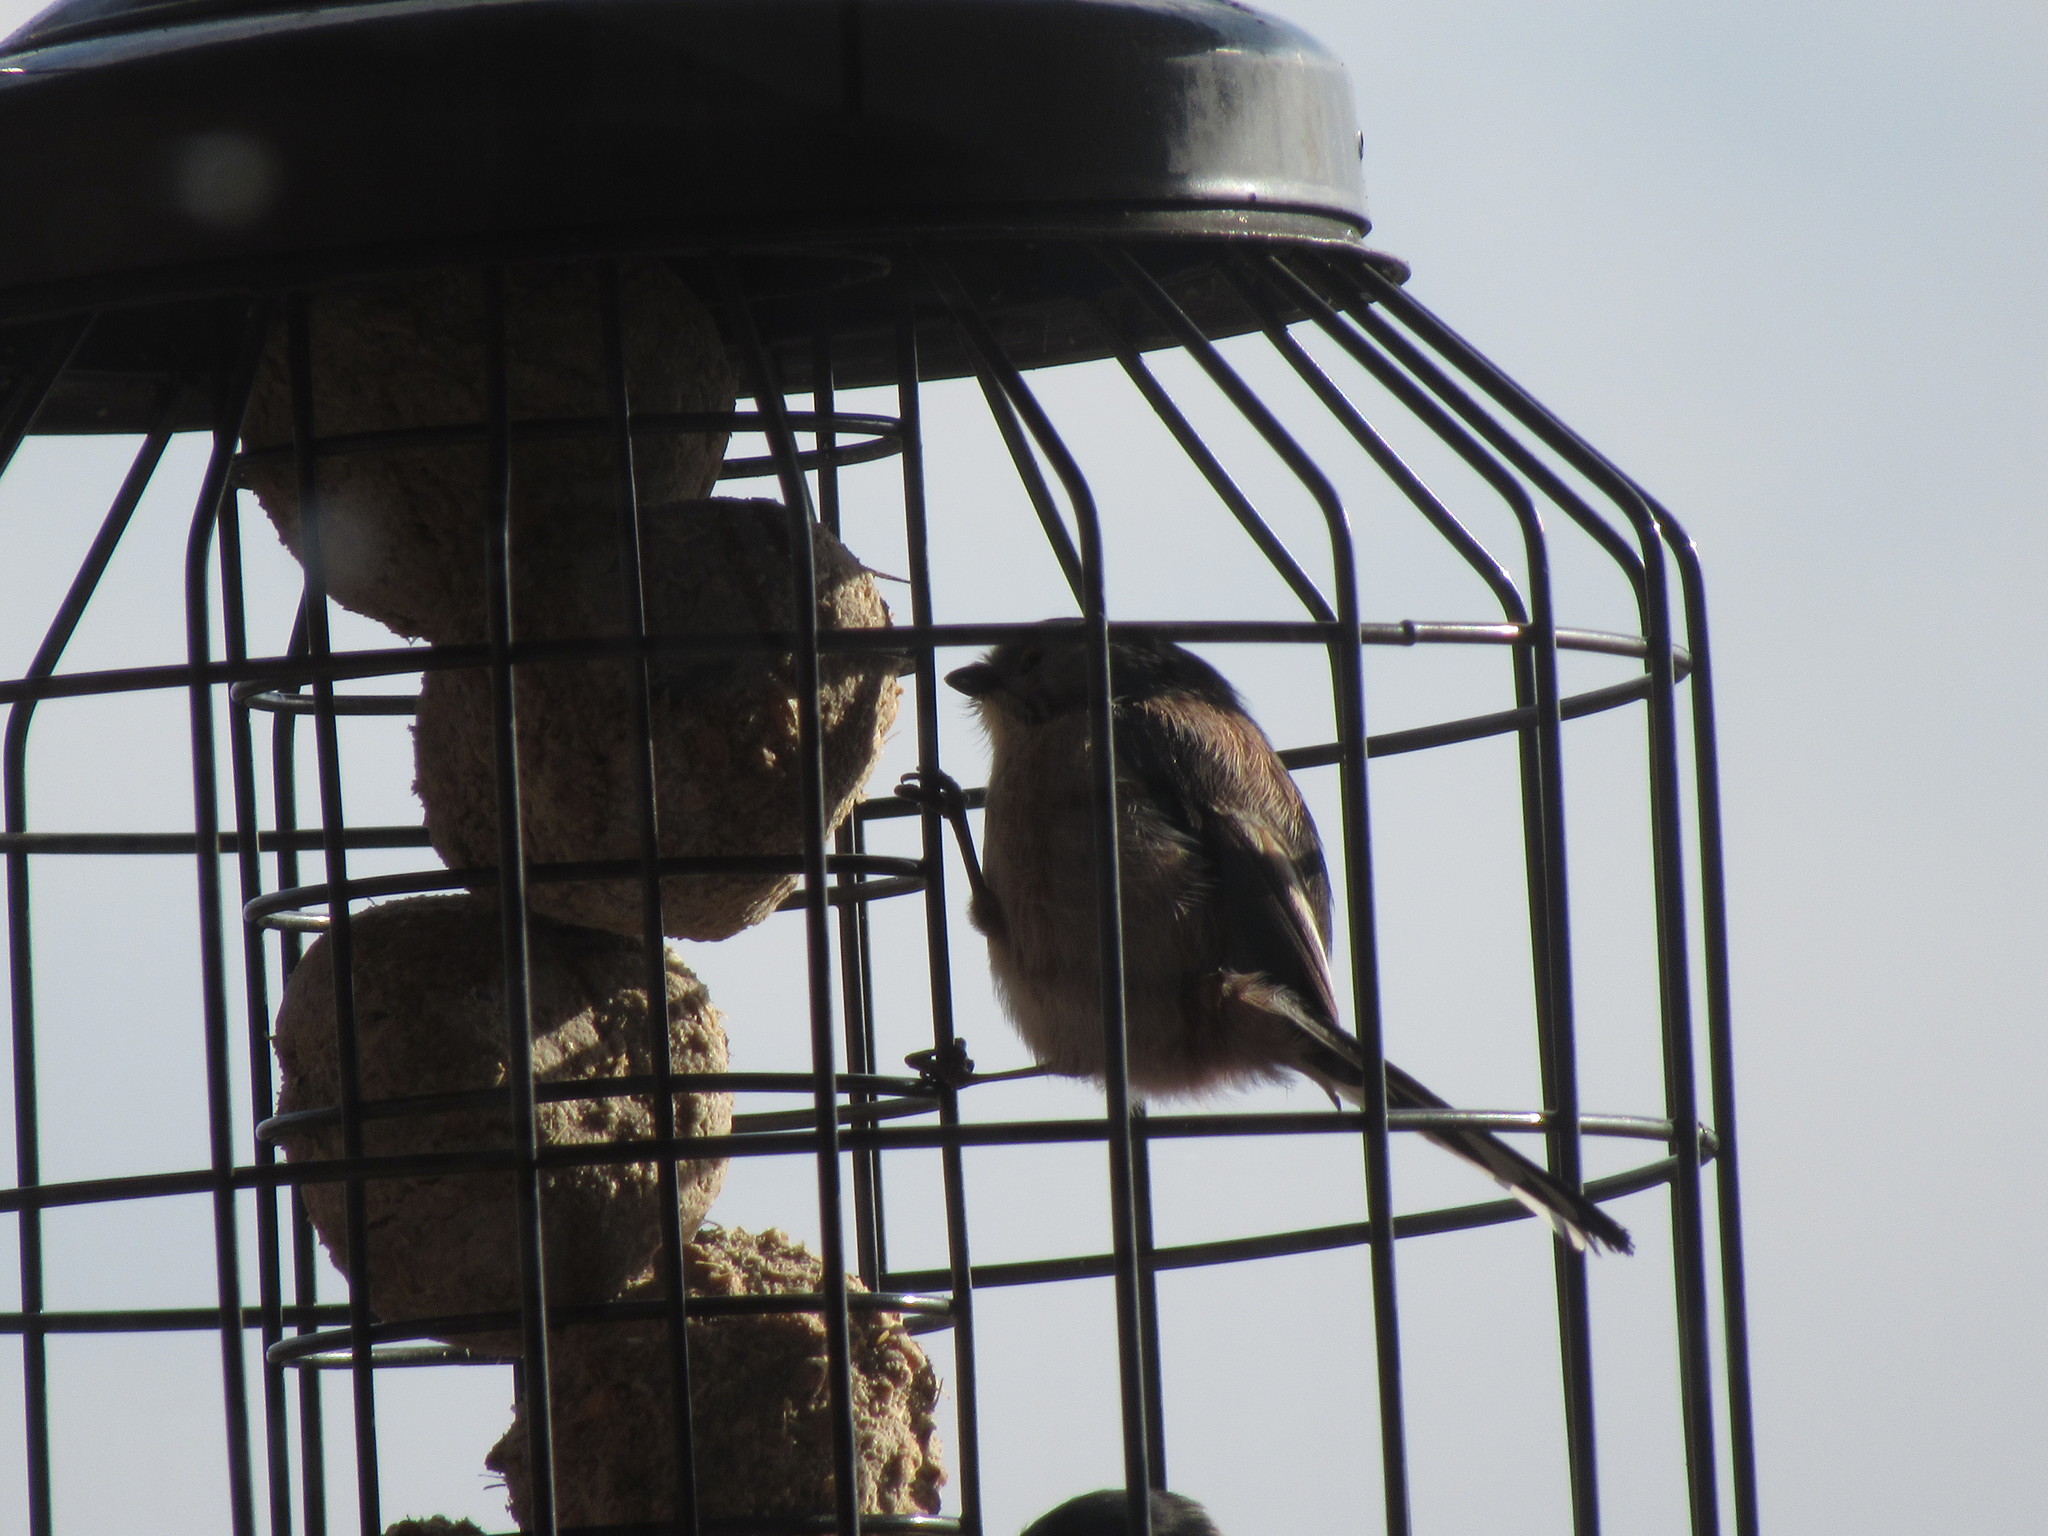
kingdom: Animalia
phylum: Chordata
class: Aves
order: Passeriformes
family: Aegithalidae
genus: Aegithalos
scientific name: Aegithalos caudatus
